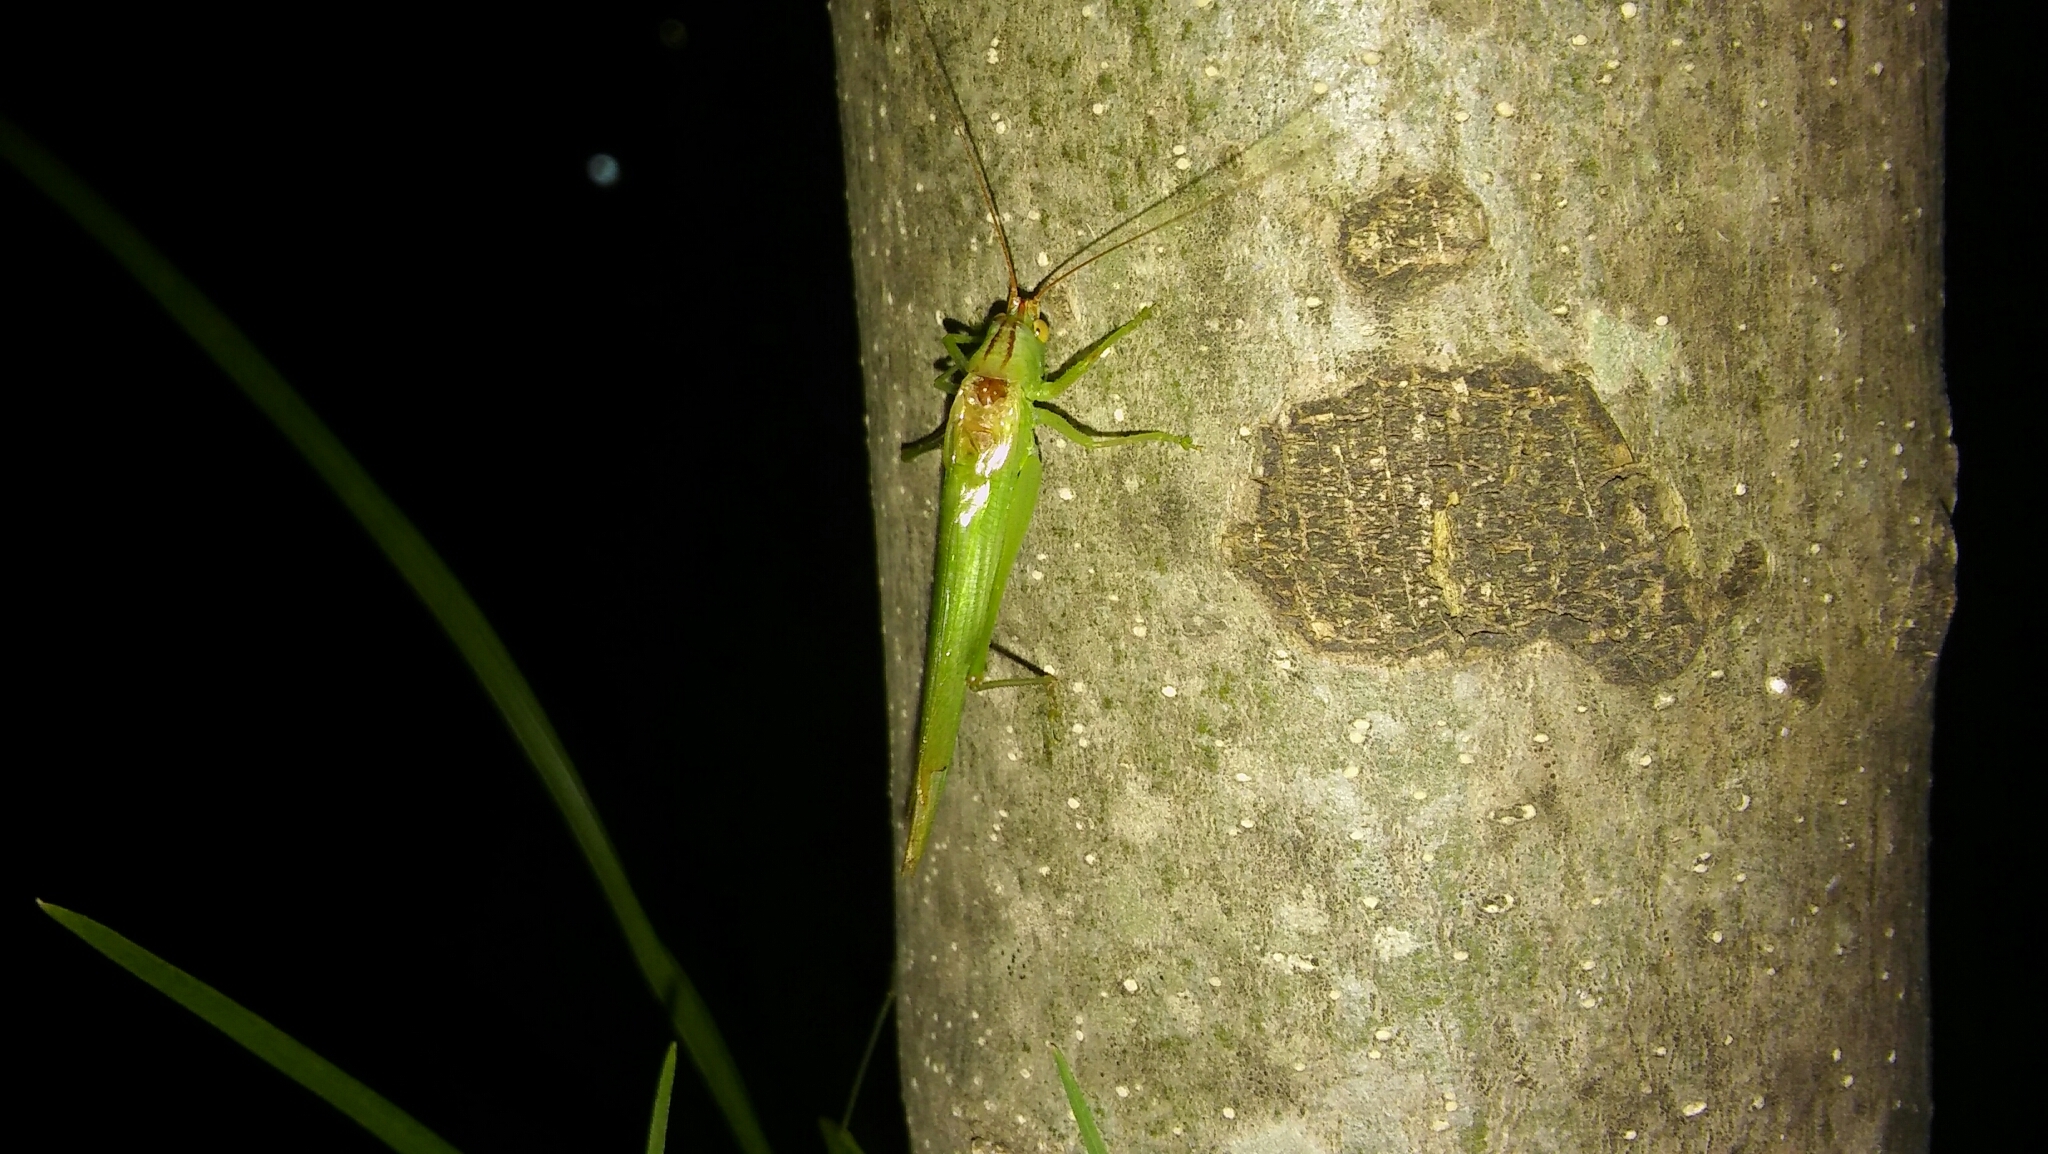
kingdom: Animalia
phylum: Arthropoda
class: Insecta
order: Orthoptera
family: Tettigoniidae
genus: Conocephalus
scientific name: Conocephalus longipes
